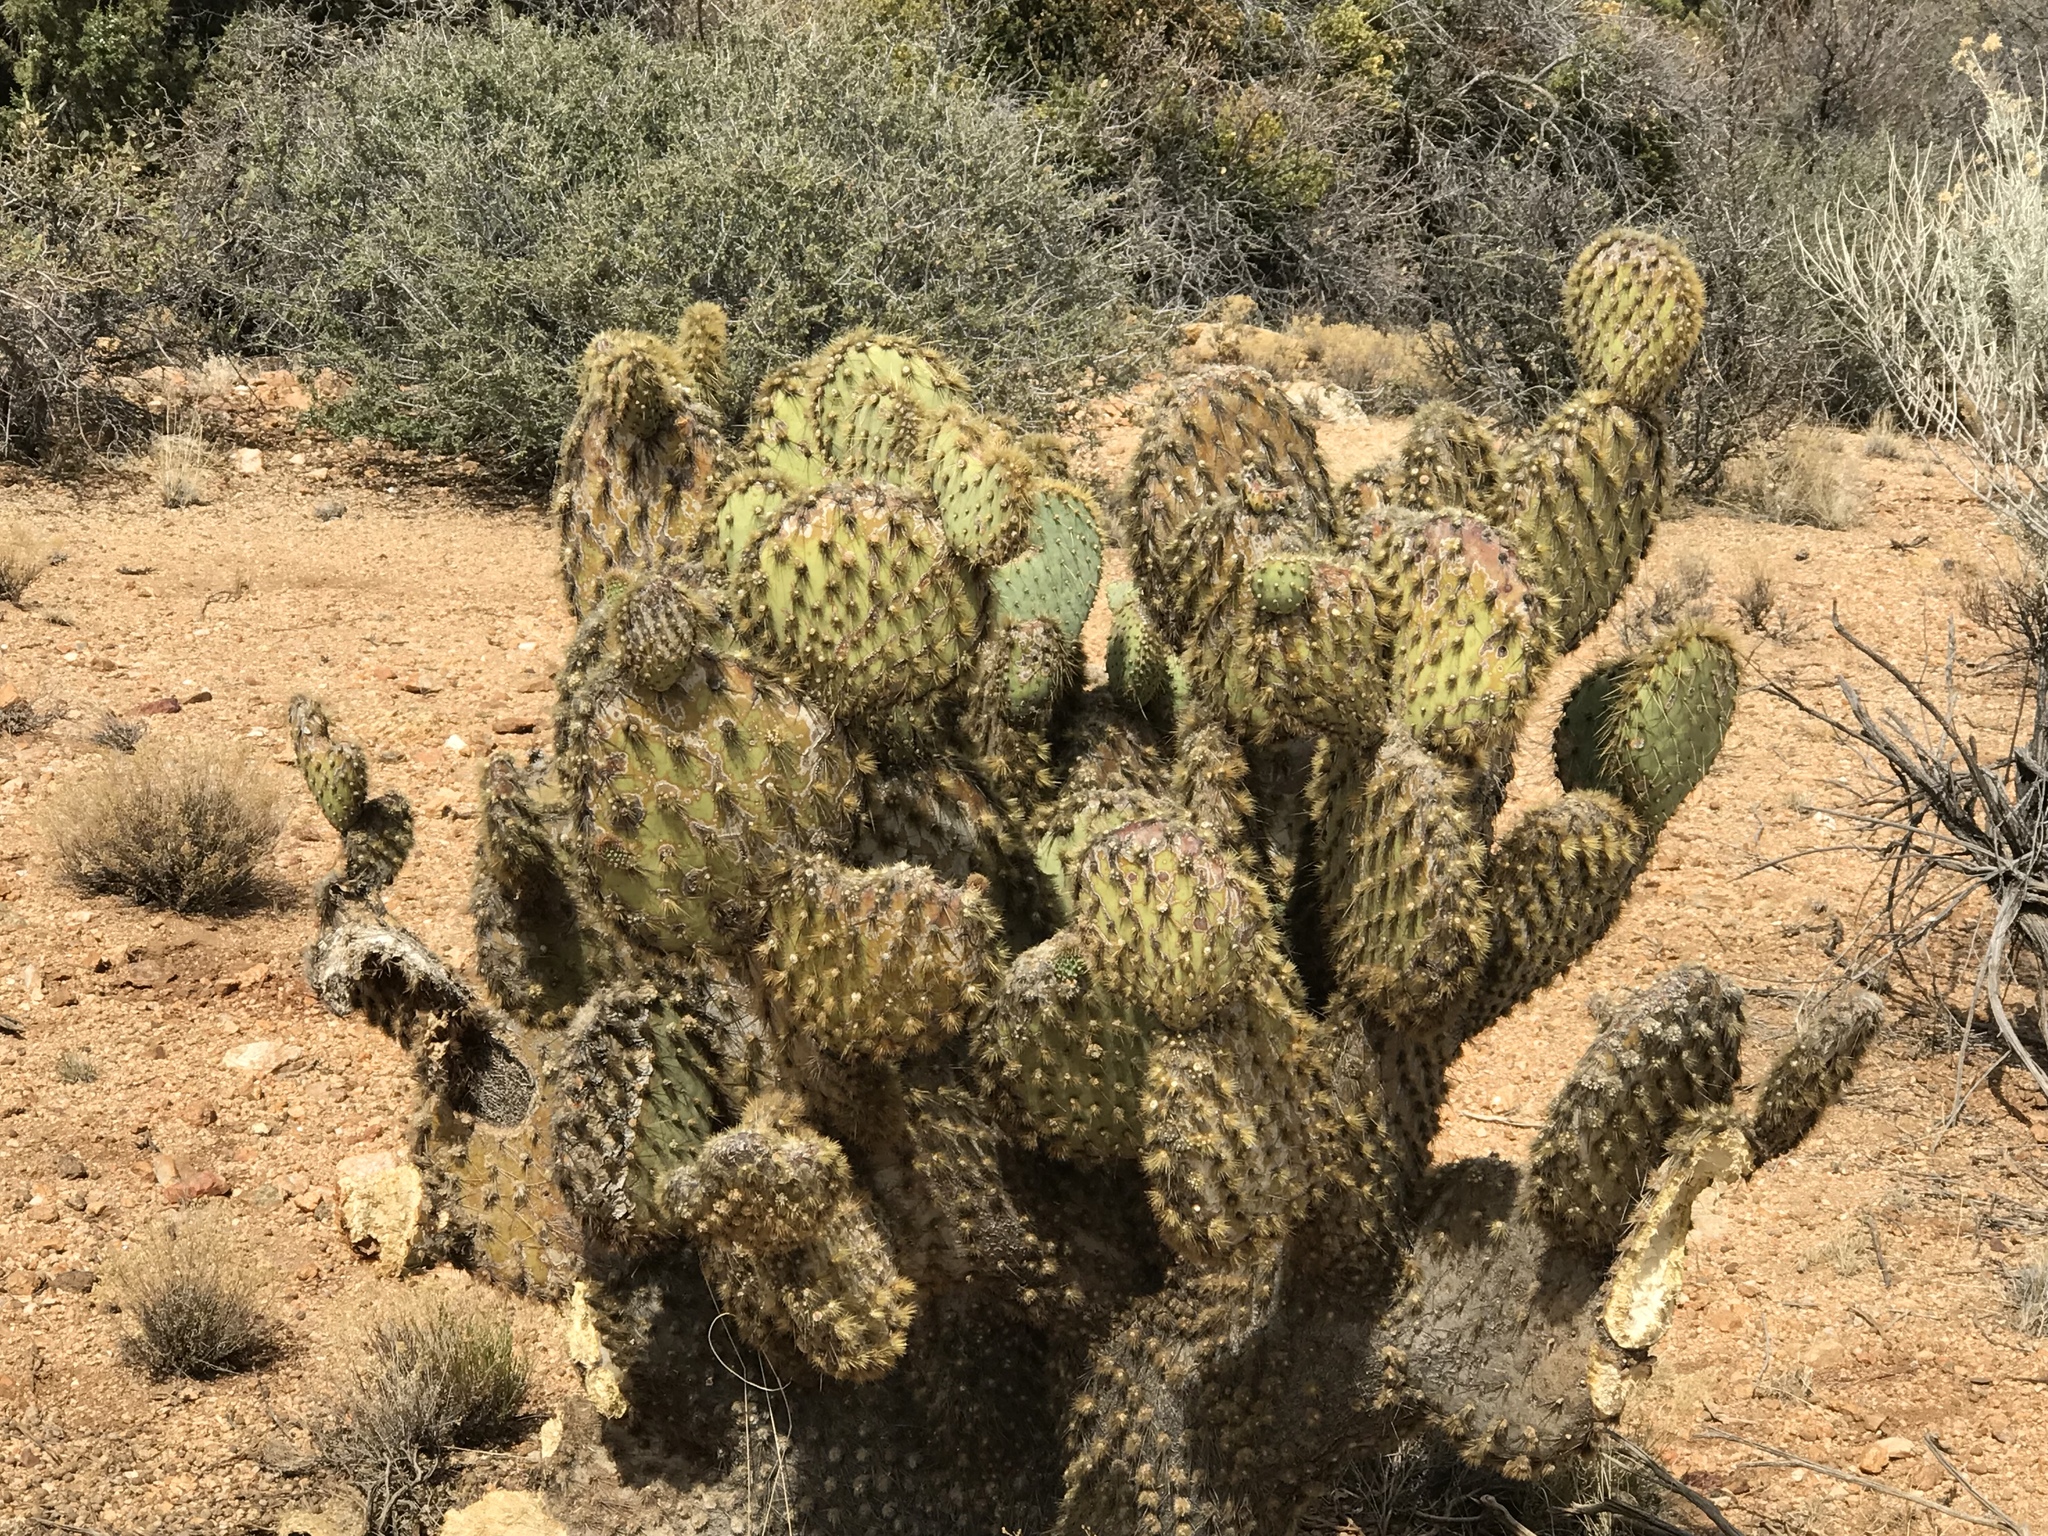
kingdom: Plantae
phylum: Tracheophyta
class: Magnoliopsida
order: Caryophyllales
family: Cactaceae
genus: Opuntia
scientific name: Opuntia chlorotica
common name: Dollar-joint prickly-pear
